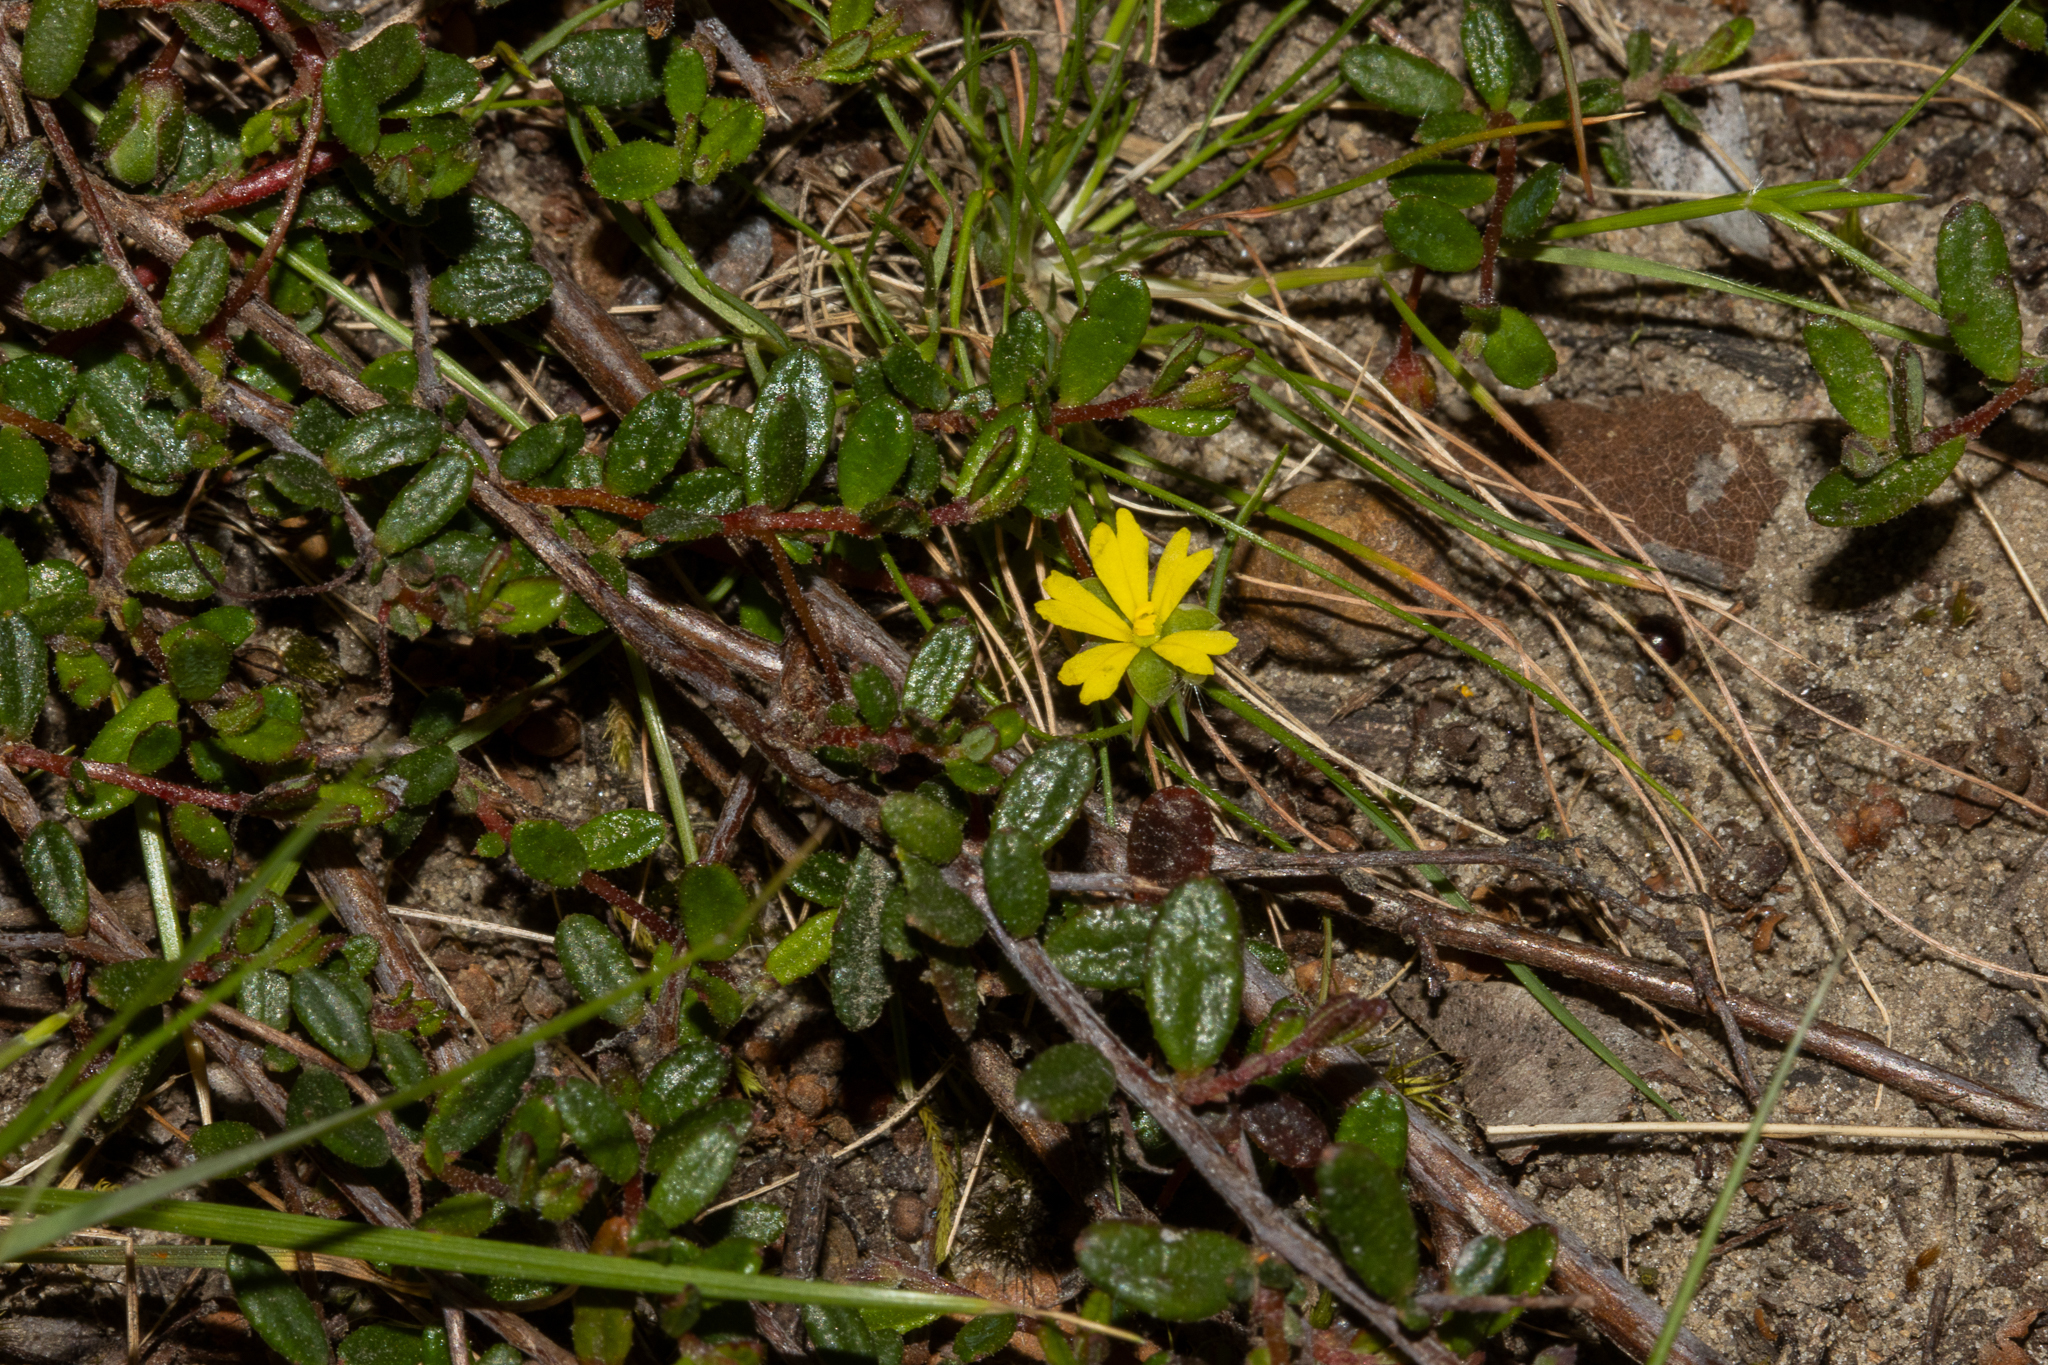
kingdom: Plantae
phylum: Tracheophyta
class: Magnoliopsida
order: Dilleniales
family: Dilleniaceae
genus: Hibbertia
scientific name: Hibbertia
